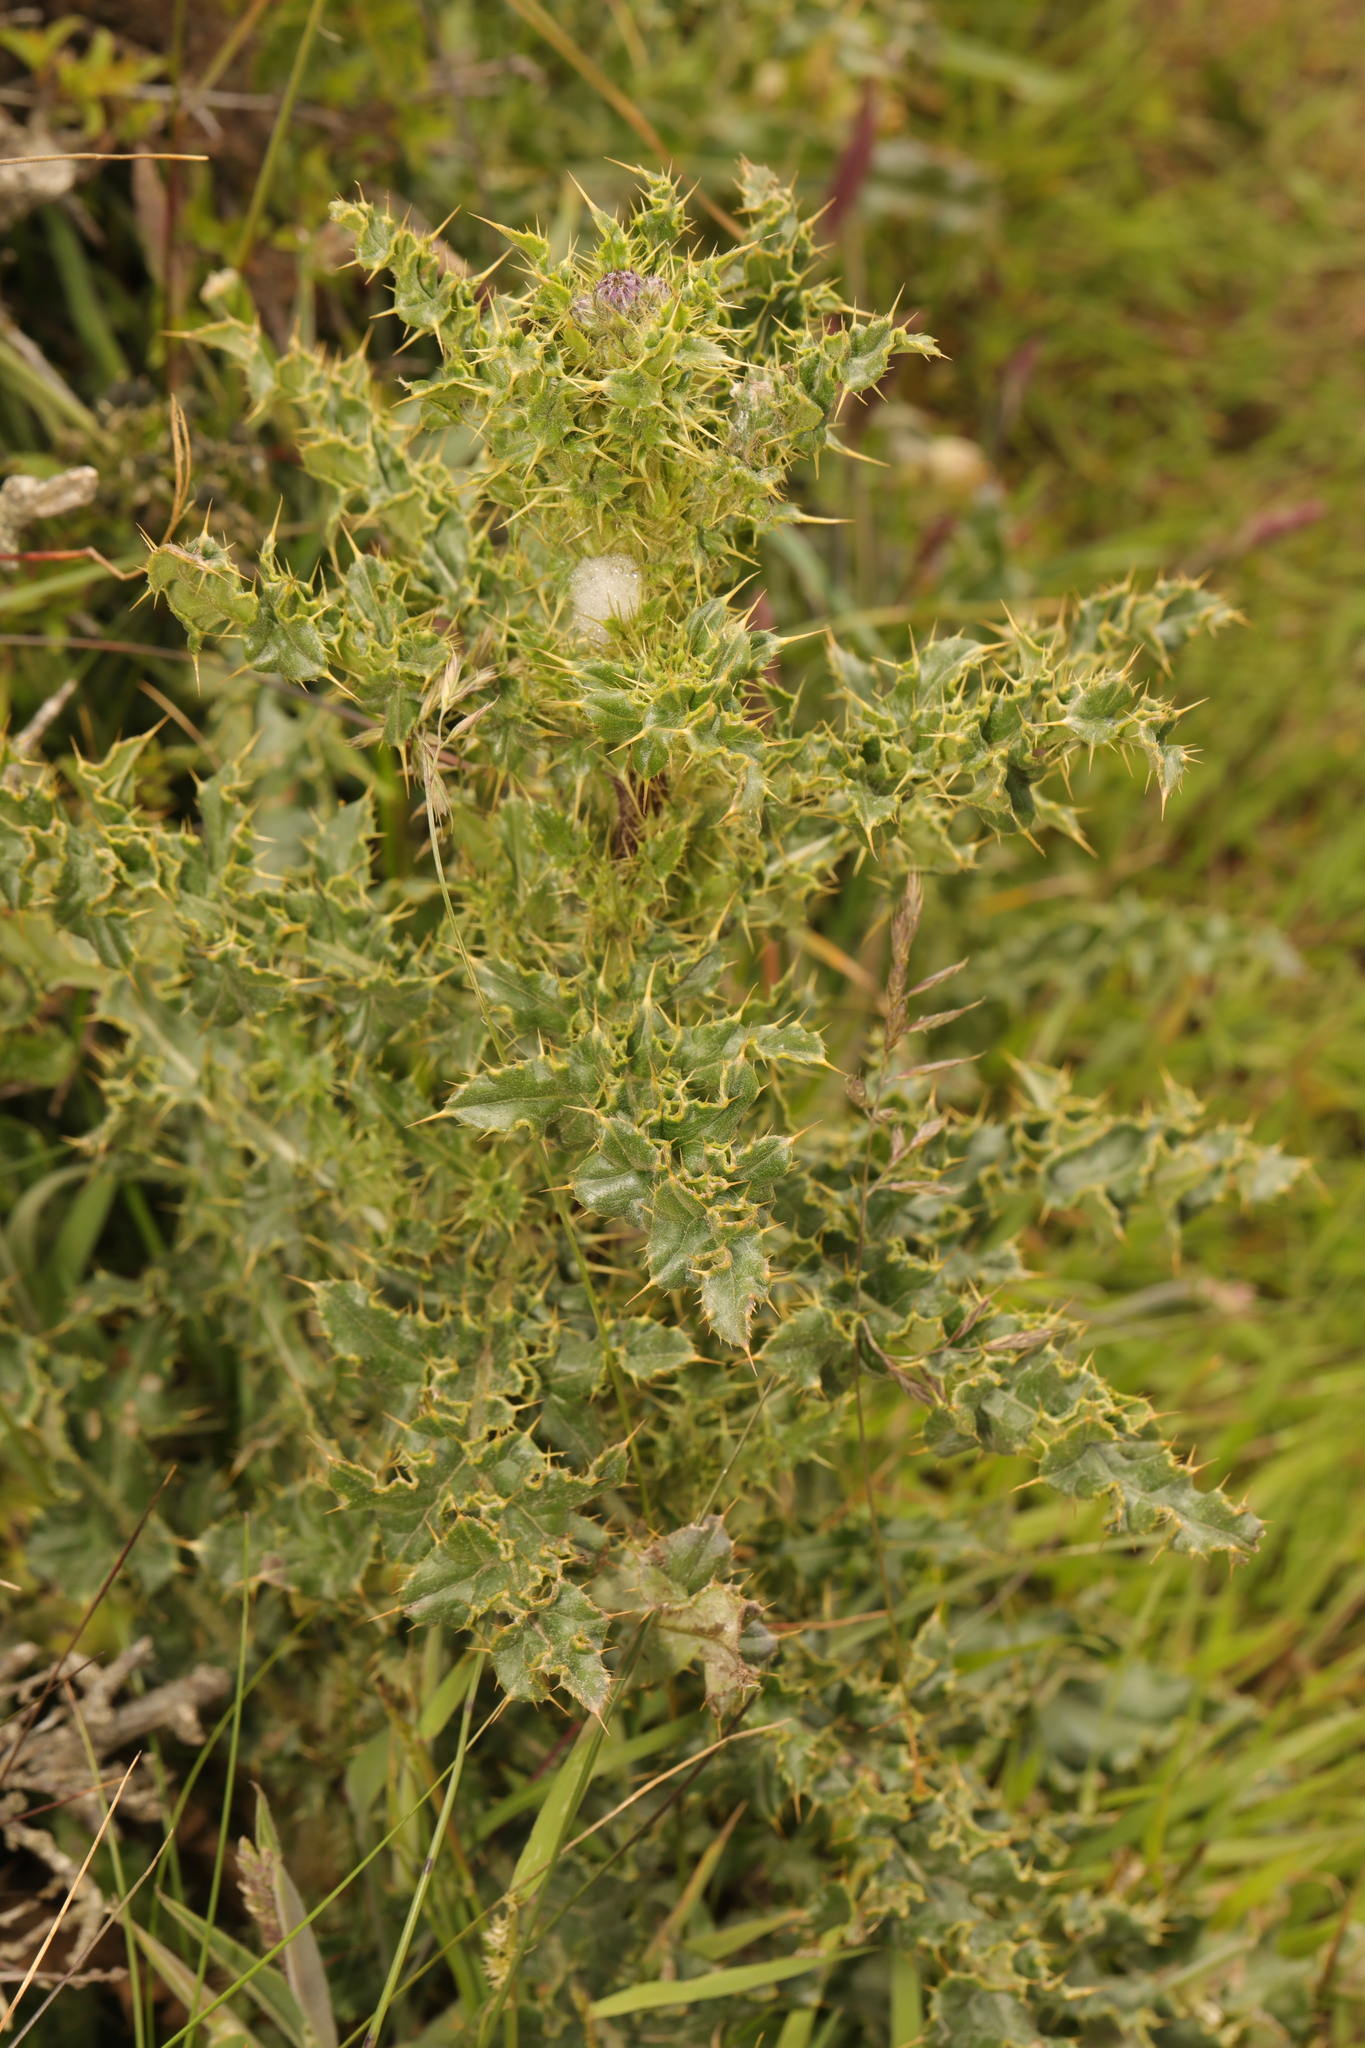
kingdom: Plantae
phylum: Tracheophyta
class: Magnoliopsida
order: Asterales
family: Asteraceae
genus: Cirsium
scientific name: Cirsium arvense
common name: Creeping thistle
